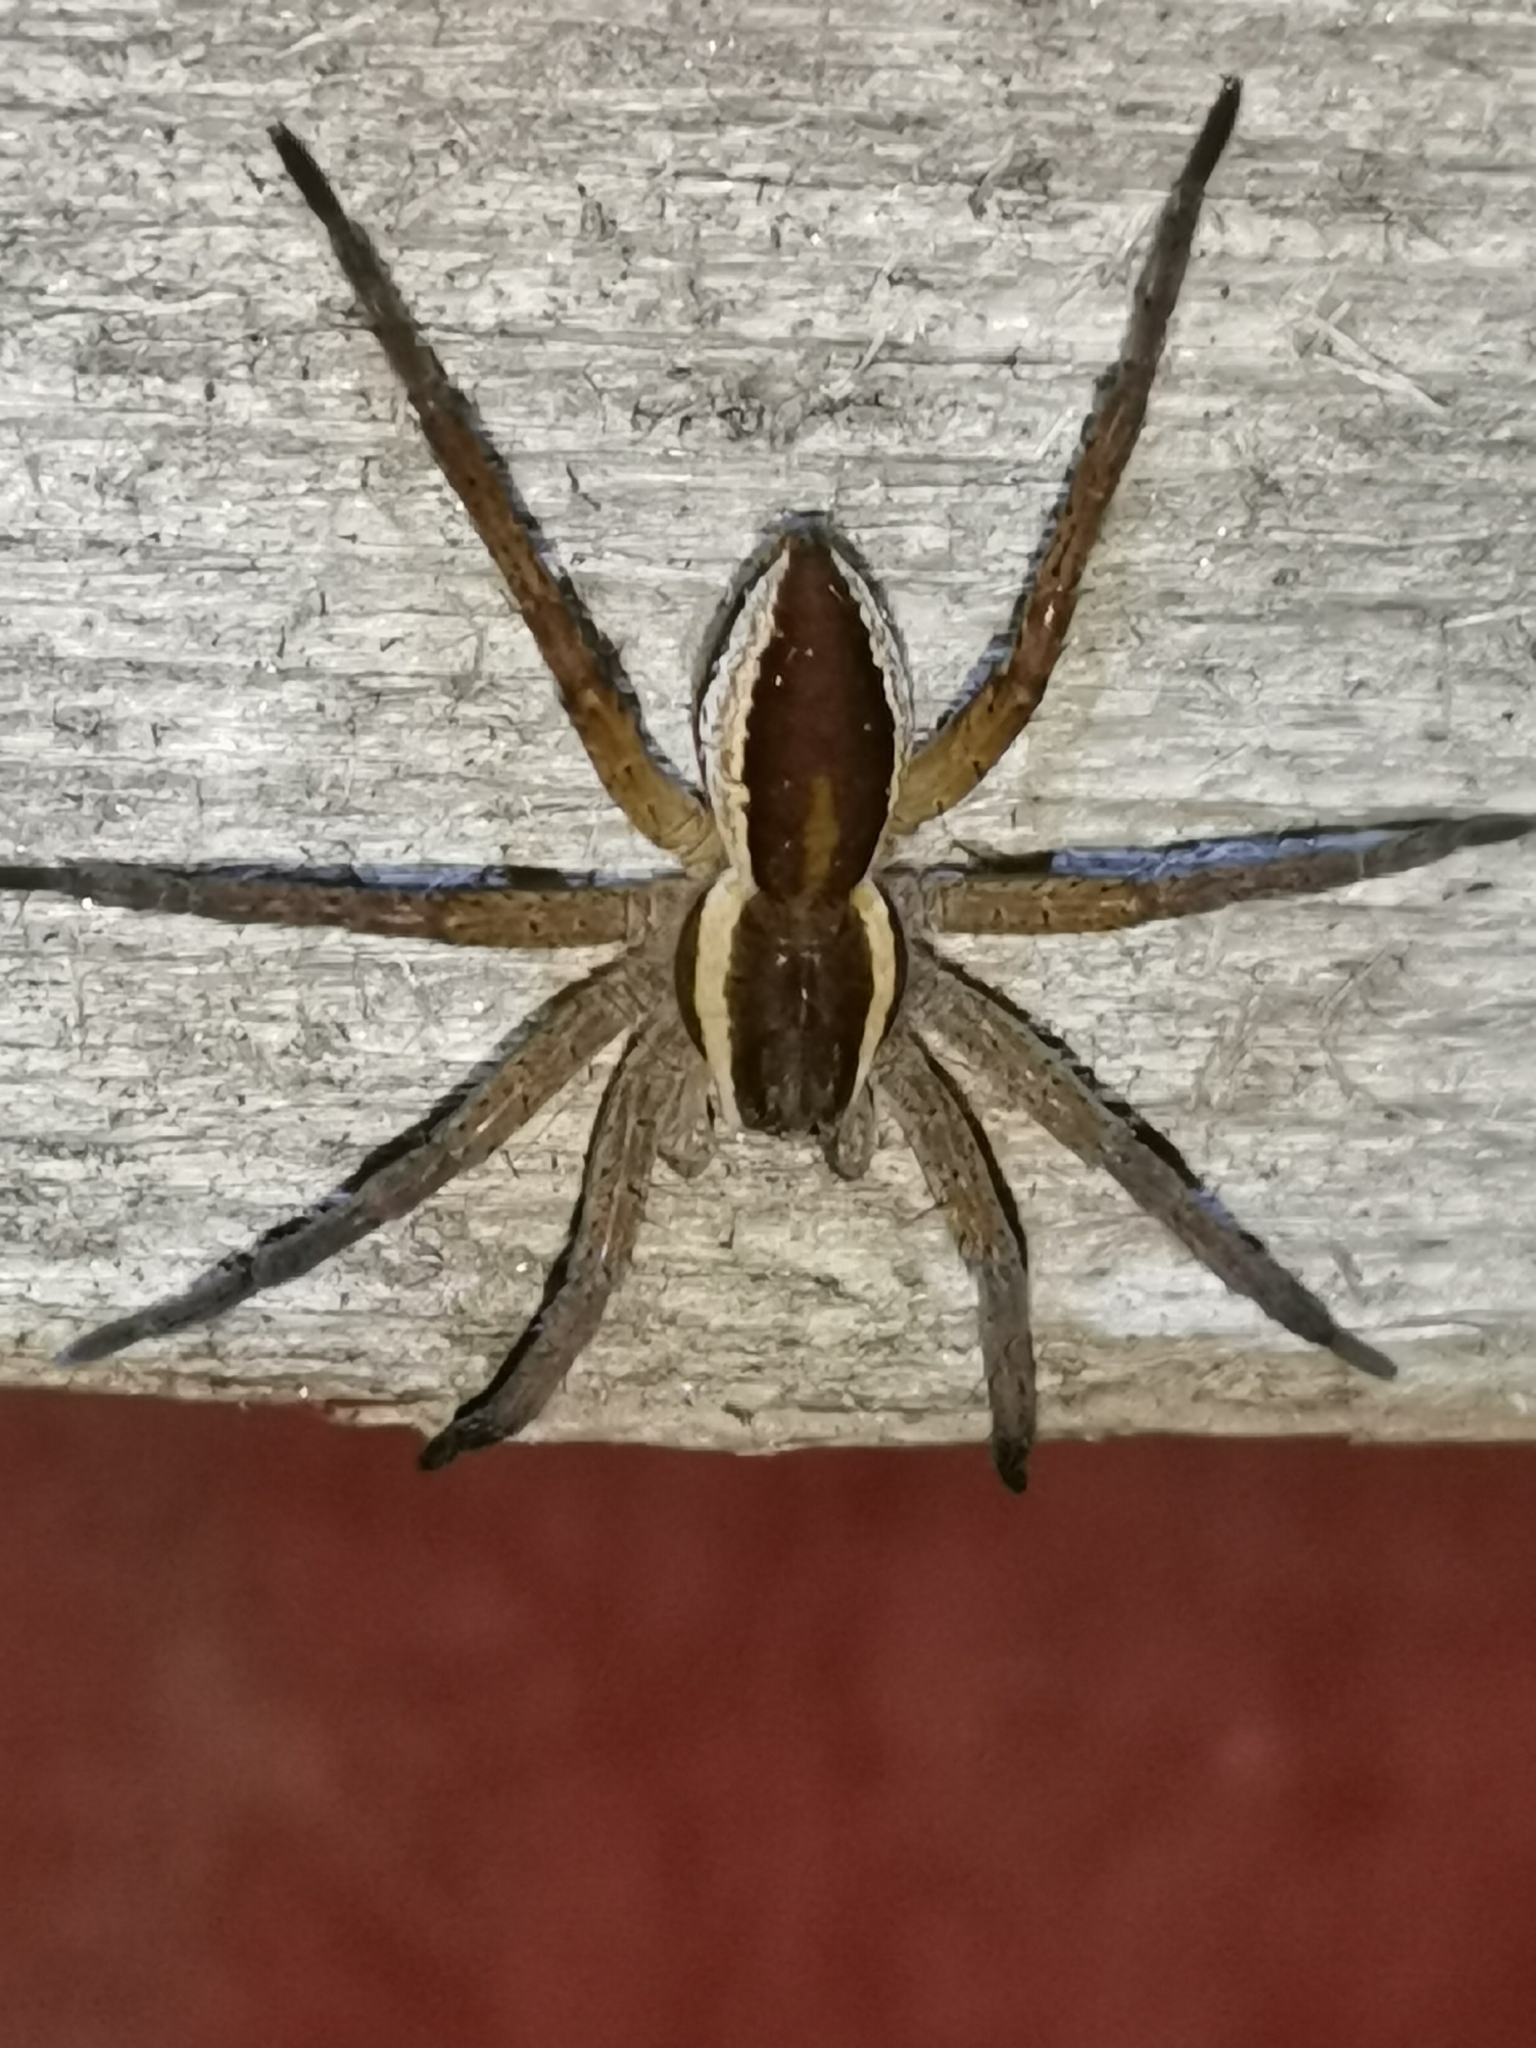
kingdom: Animalia
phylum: Arthropoda
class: Arachnida
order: Araneae
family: Pisauridae
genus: Dolomedes
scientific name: Dolomedes fimbriatus
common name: Raft spider
